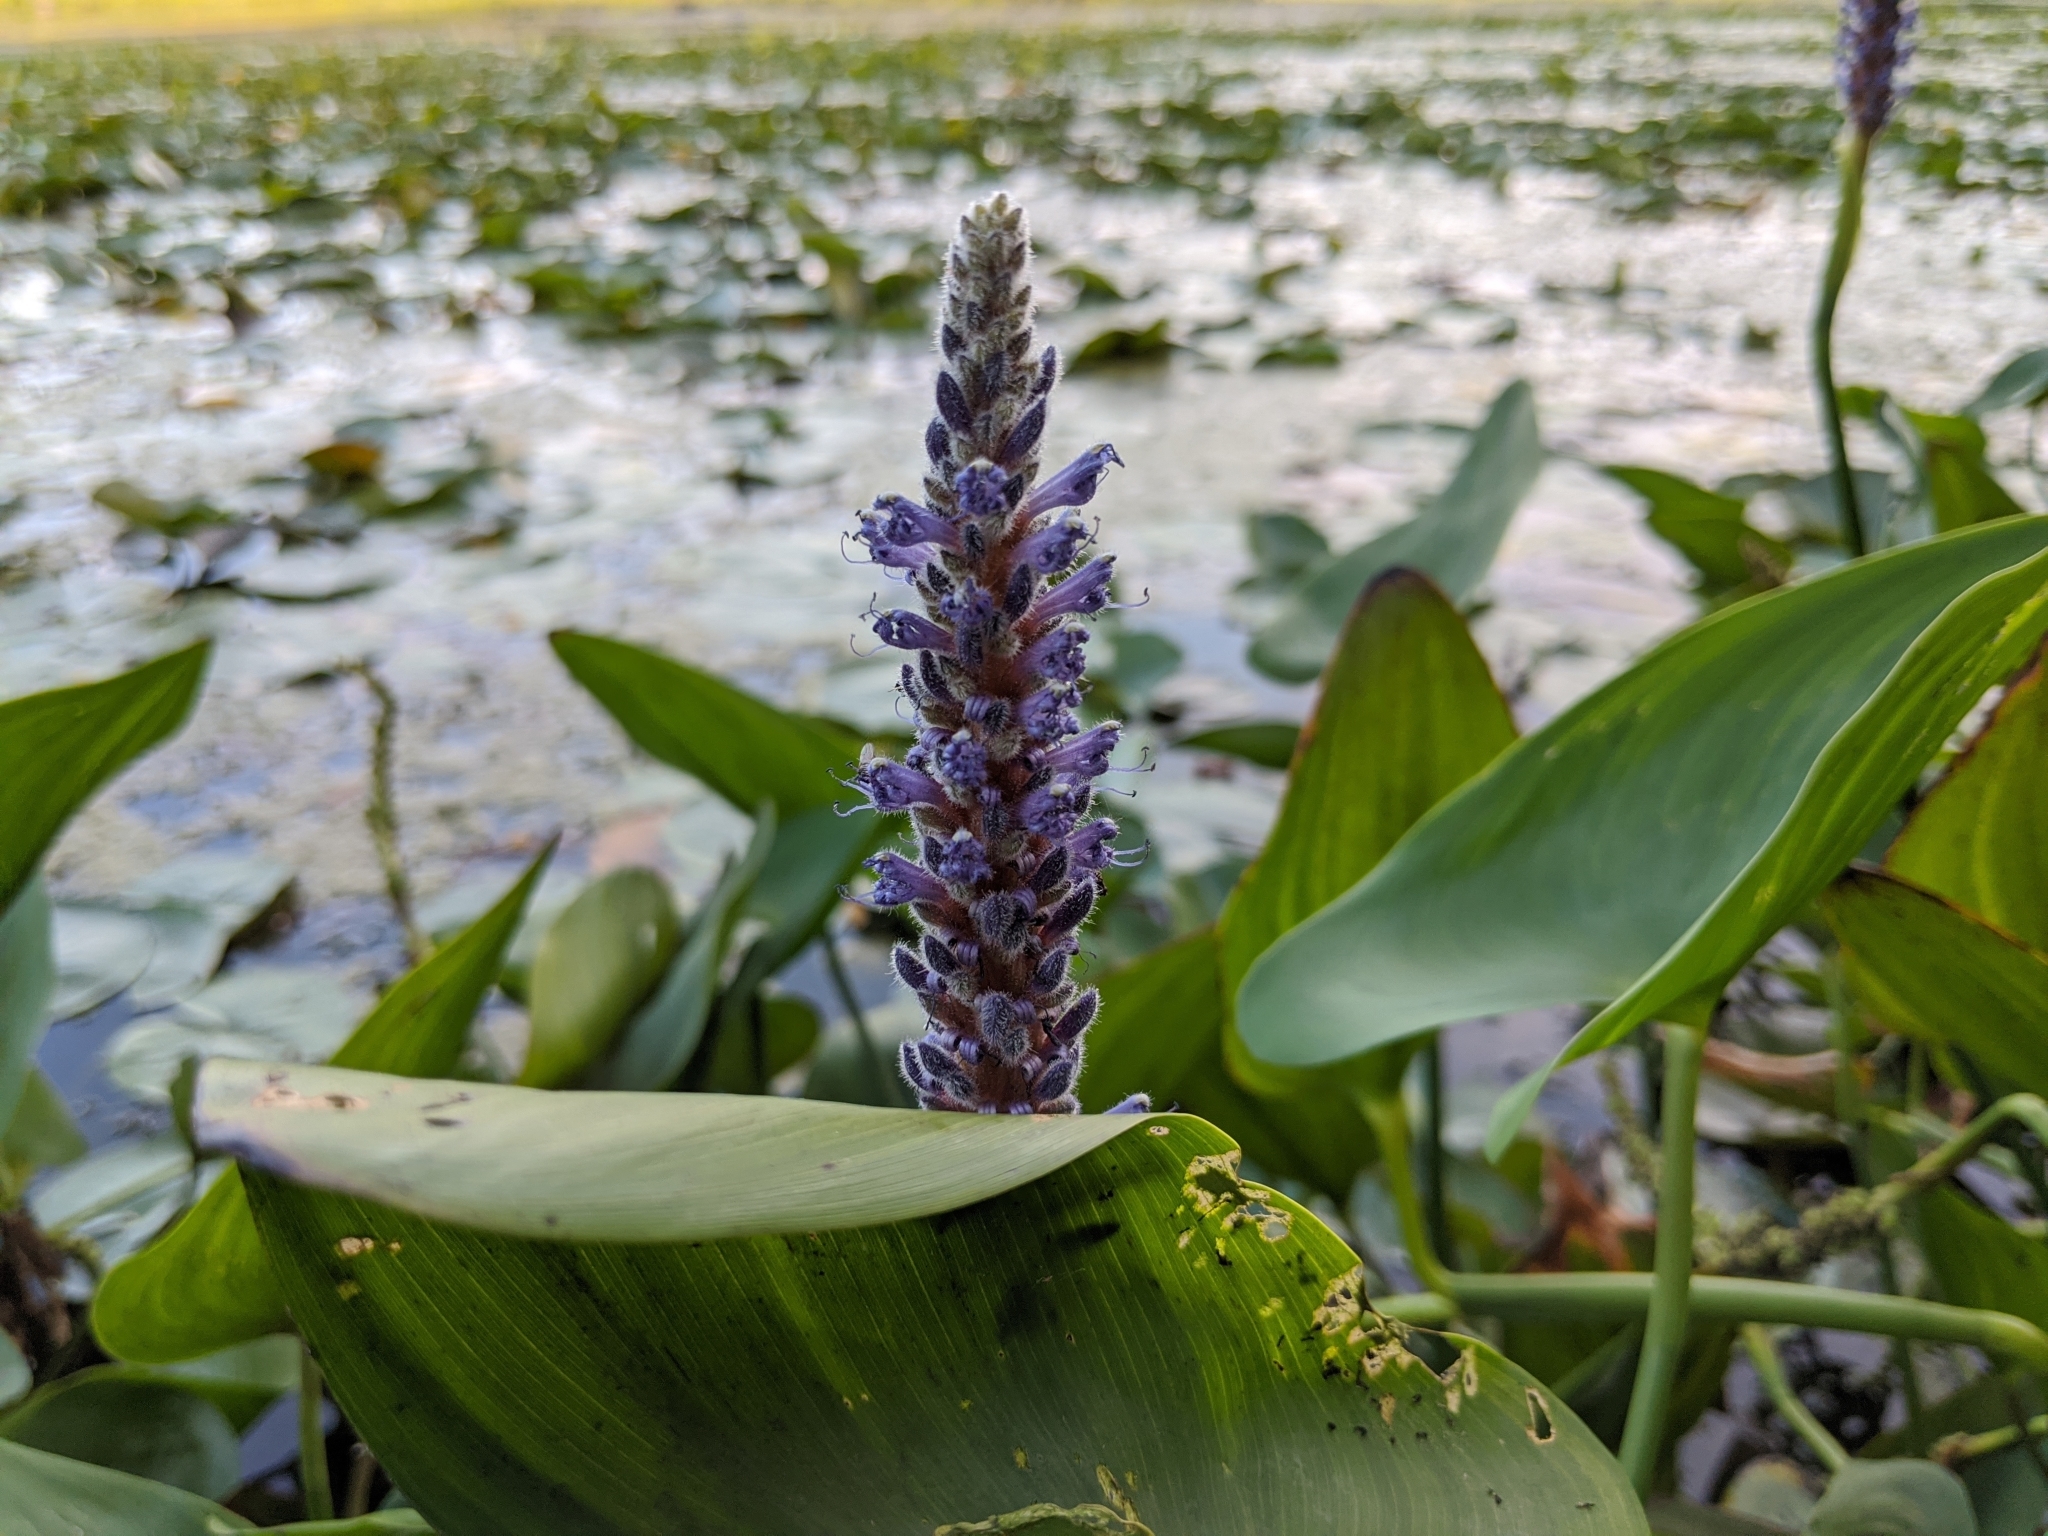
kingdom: Plantae
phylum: Tracheophyta
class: Liliopsida
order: Commelinales
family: Pontederiaceae
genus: Pontederia
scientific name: Pontederia cordata
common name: Pickerelweed
